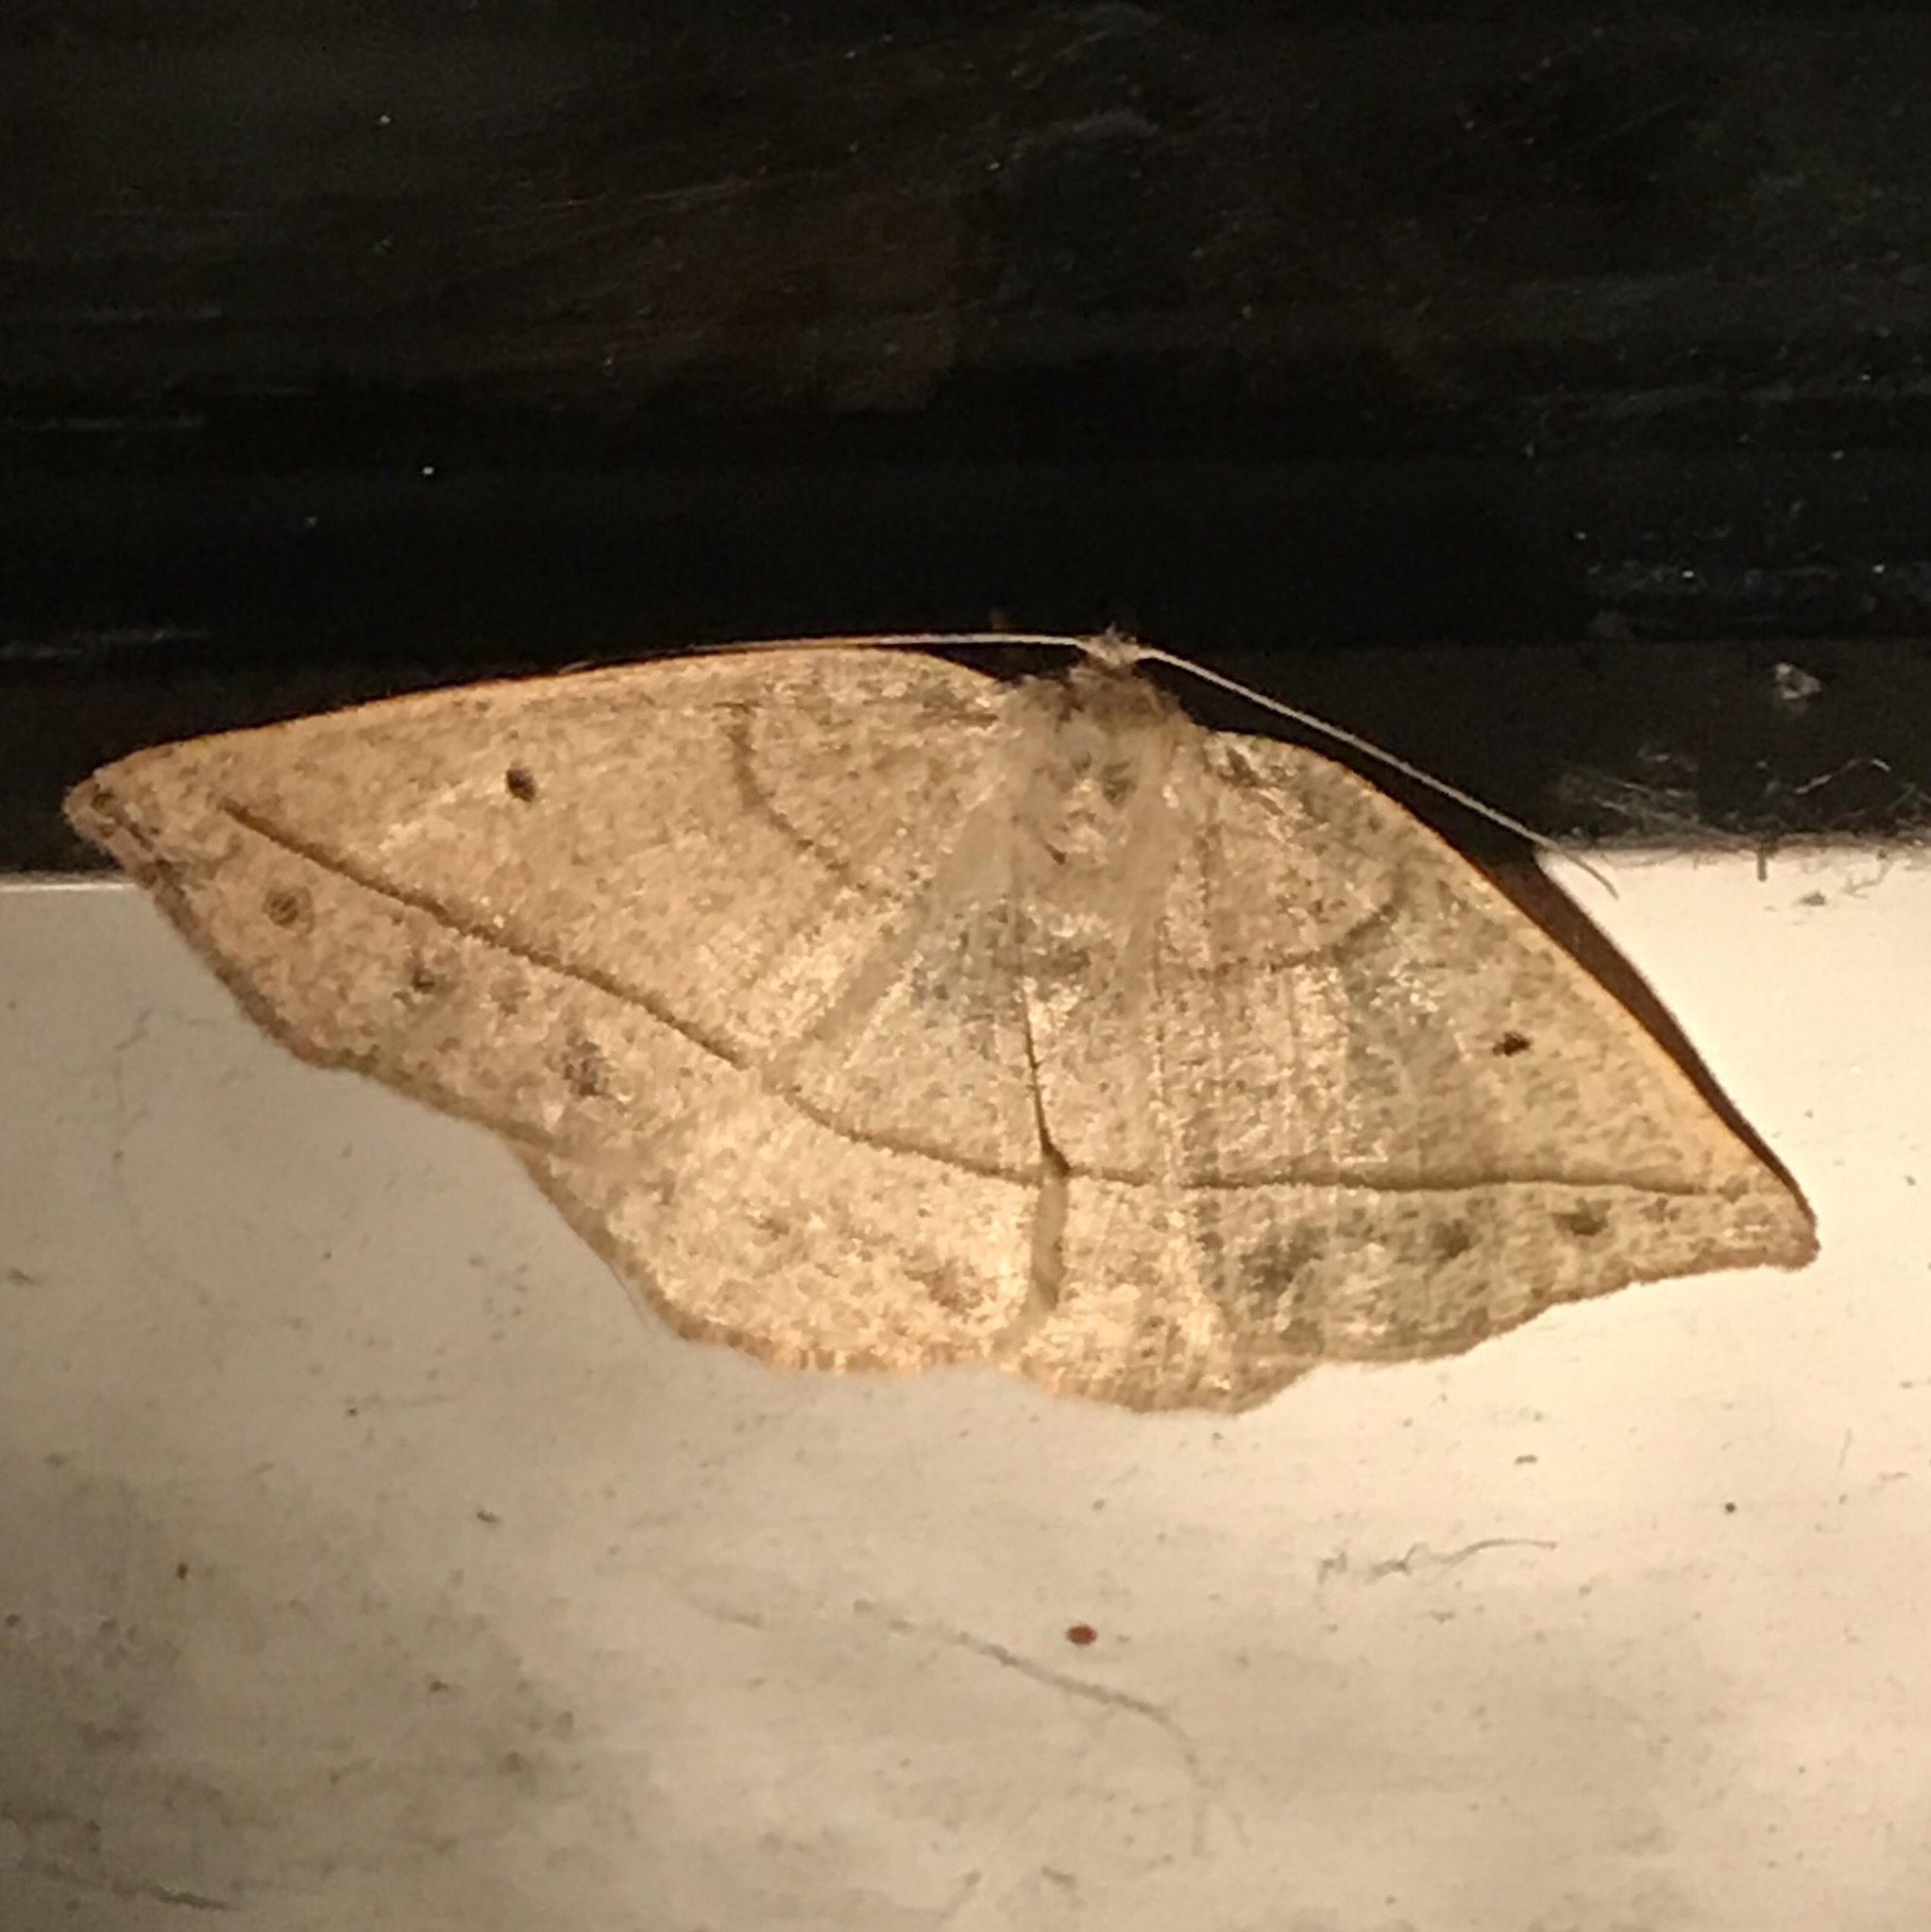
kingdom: Animalia
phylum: Arthropoda
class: Insecta
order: Lepidoptera
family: Geometridae
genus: Eusarca
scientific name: Eusarca confusaria
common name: Confused eusarca
